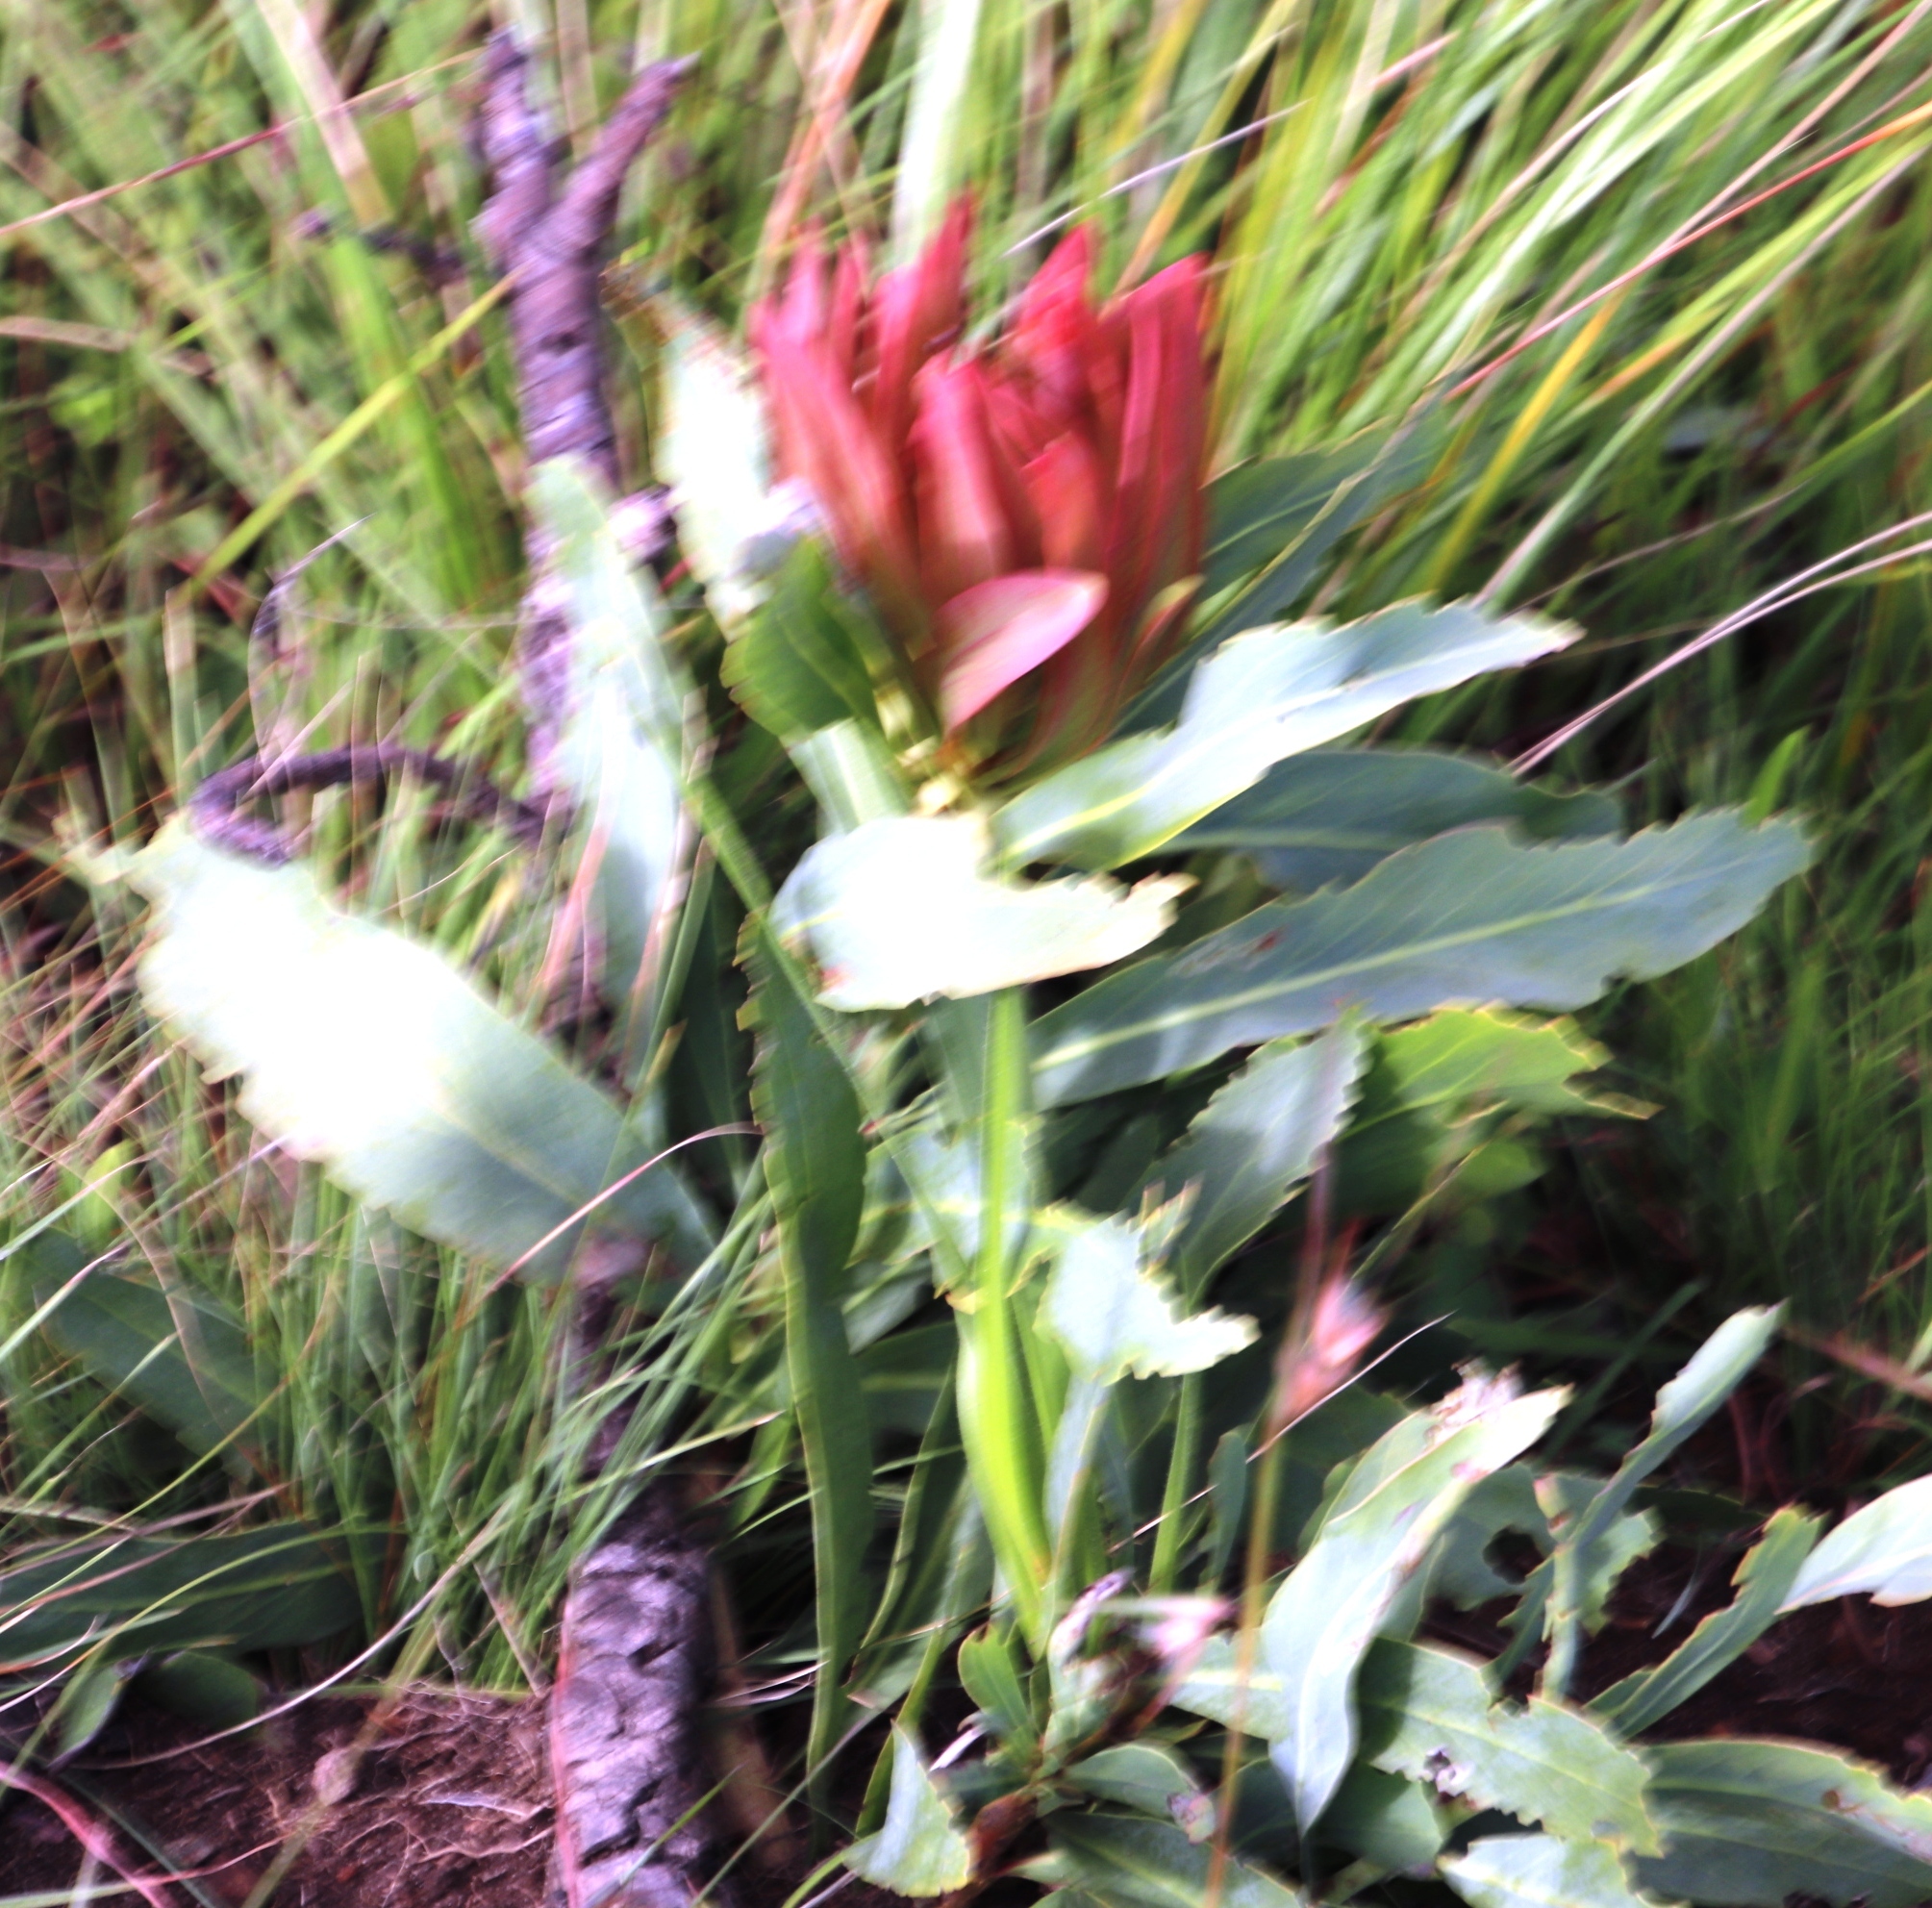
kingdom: Plantae
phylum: Tracheophyta
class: Magnoliopsida
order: Proteales
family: Proteaceae
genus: Protea
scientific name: Protea caffra
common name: Common sugarbush
